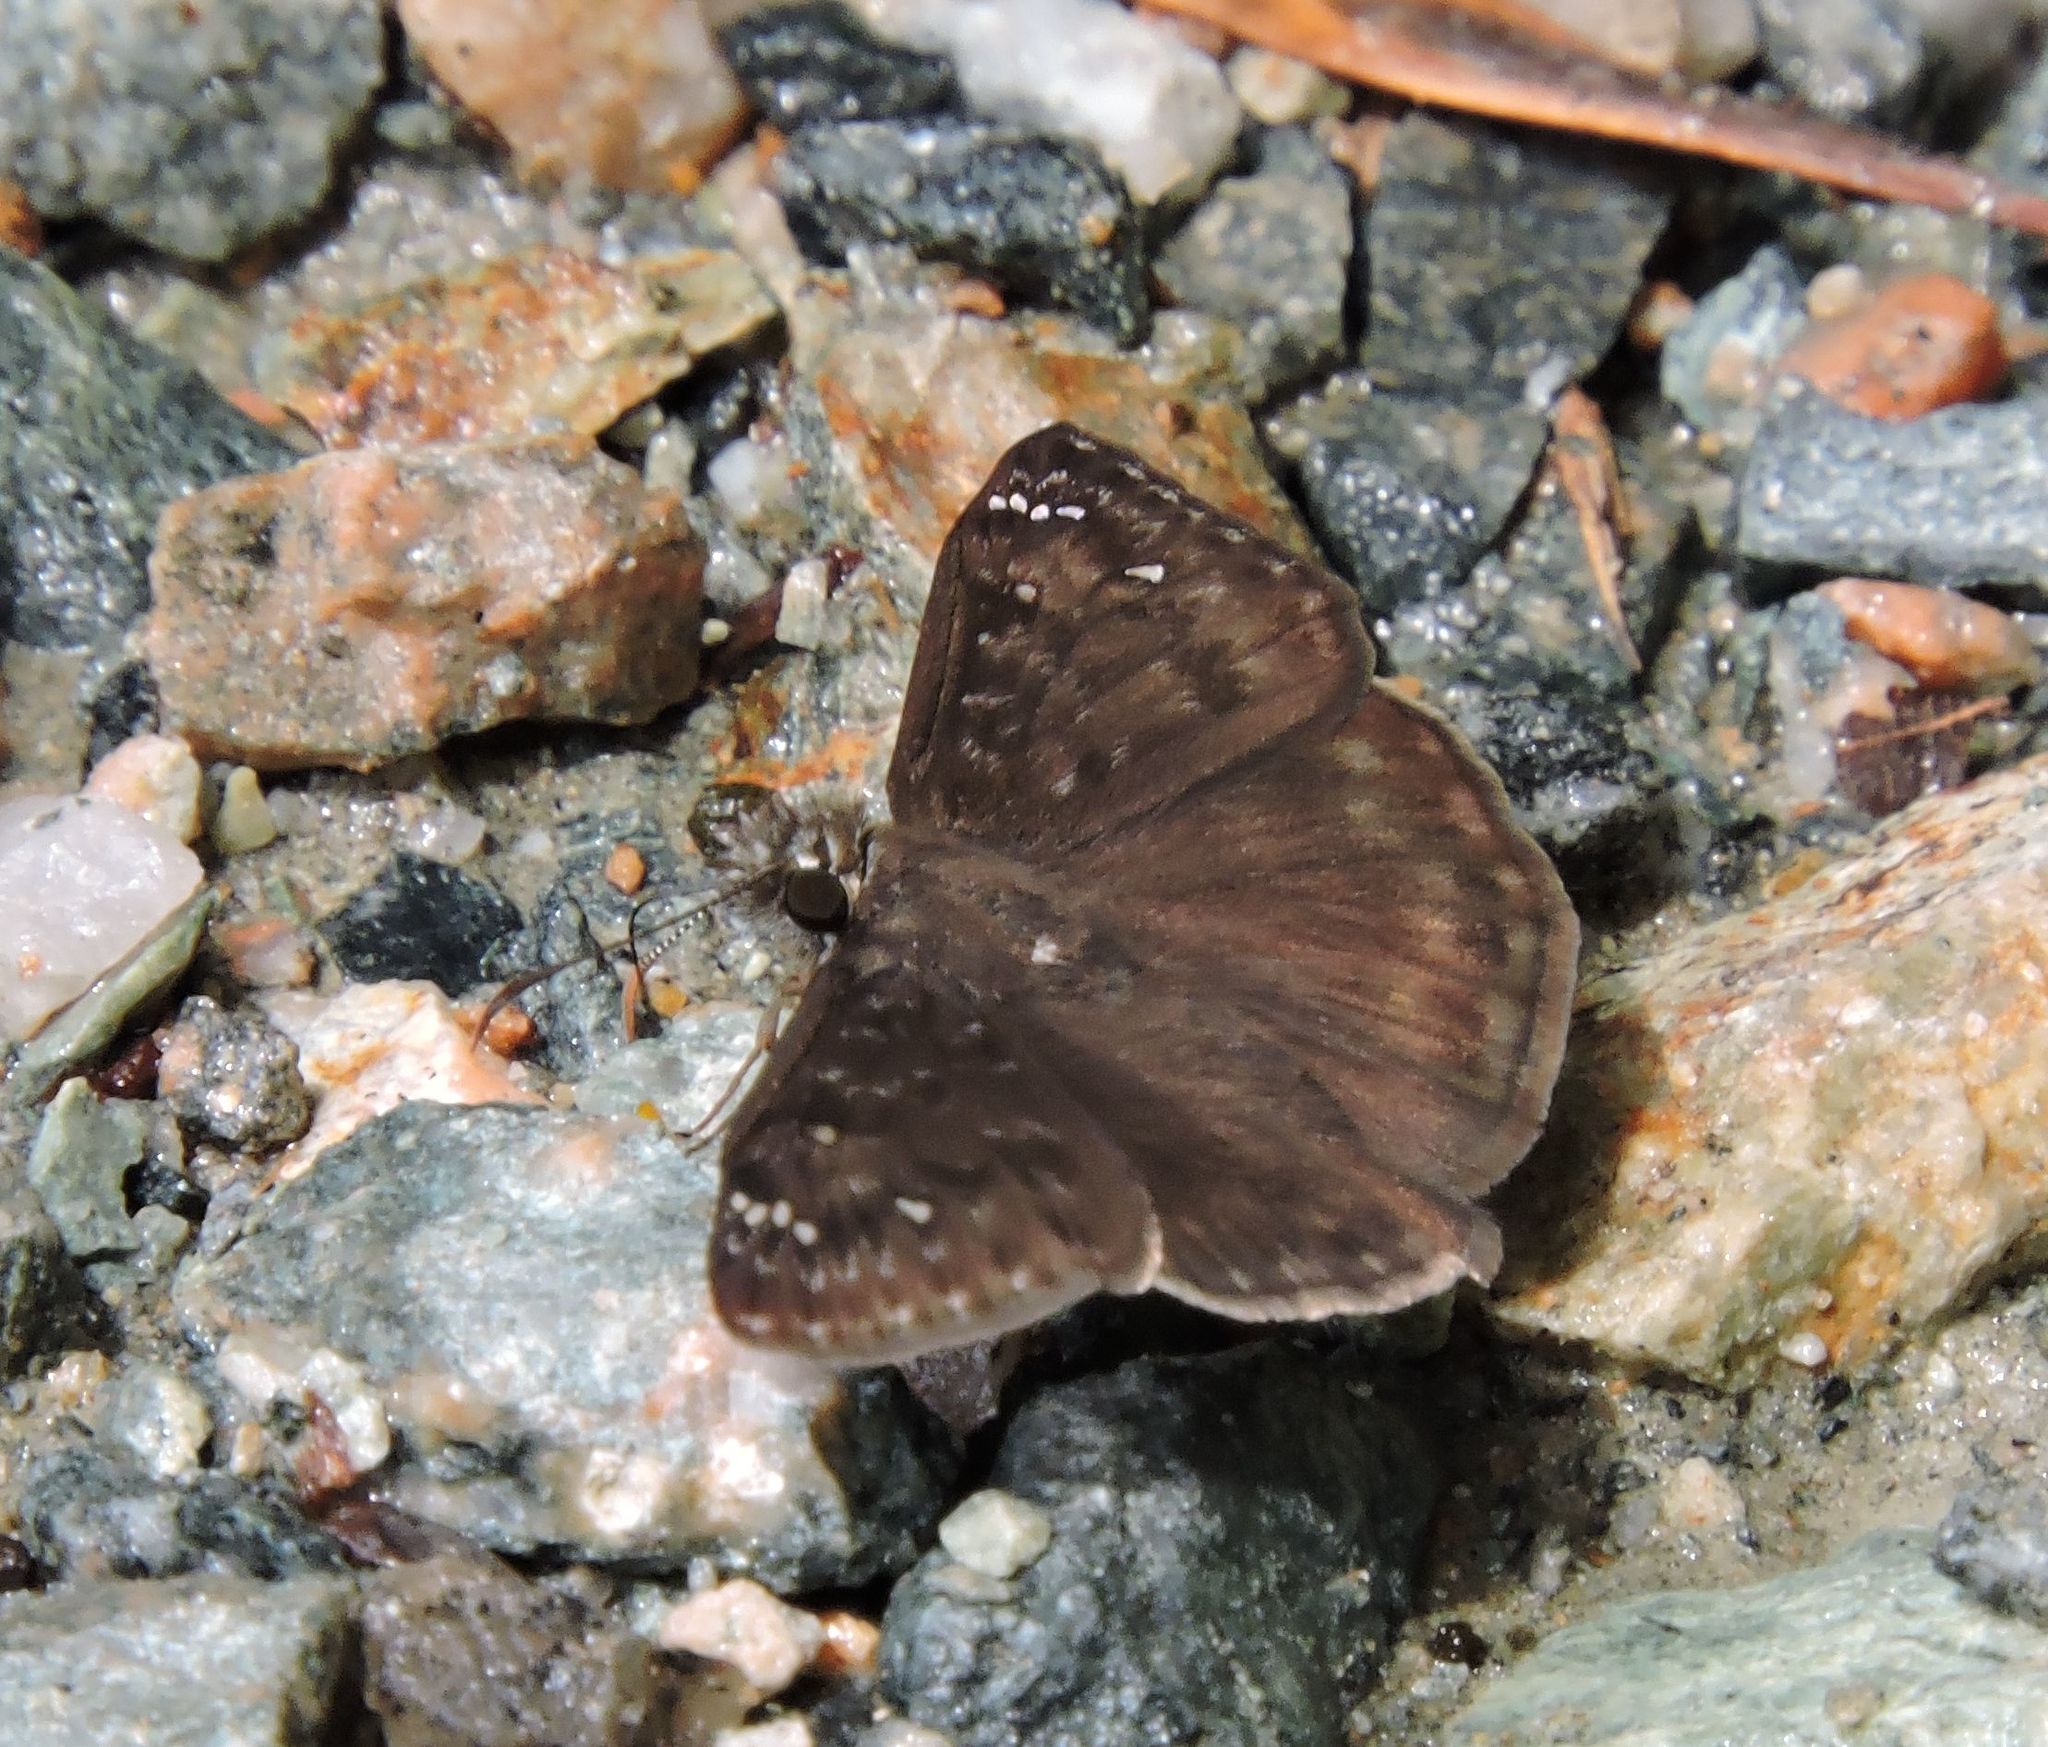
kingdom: Animalia
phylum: Arthropoda
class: Insecta
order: Lepidoptera
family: Hesperiidae
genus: Erynnis
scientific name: Erynnis horatius
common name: Horace's duskywing
